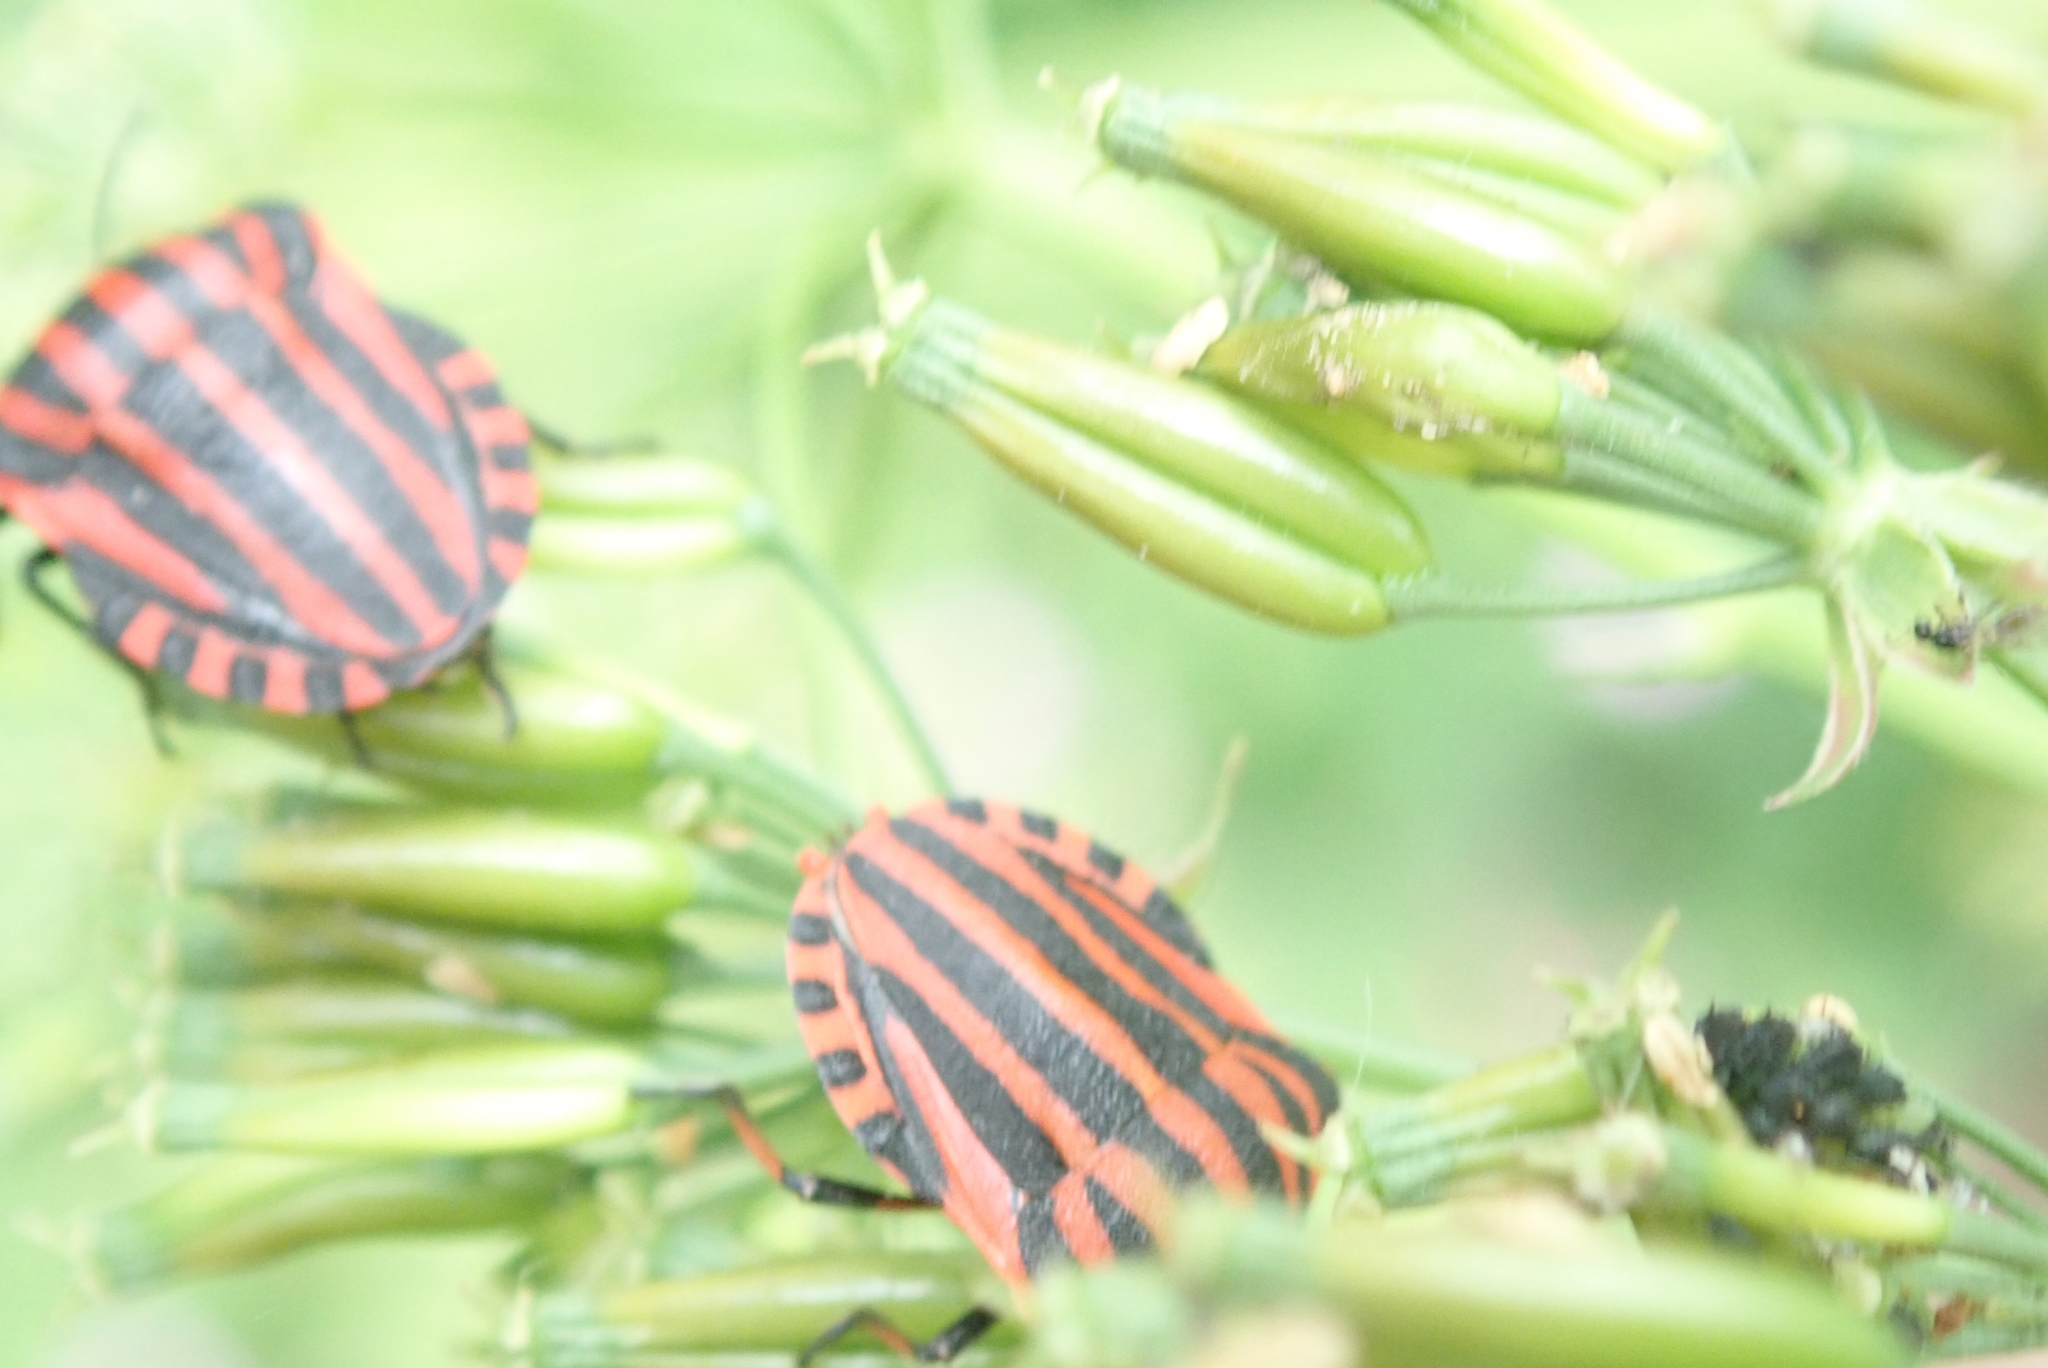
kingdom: Animalia
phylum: Arthropoda
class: Insecta
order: Hemiptera
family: Pentatomidae
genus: Graphosoma
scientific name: Graphosoma italicum
